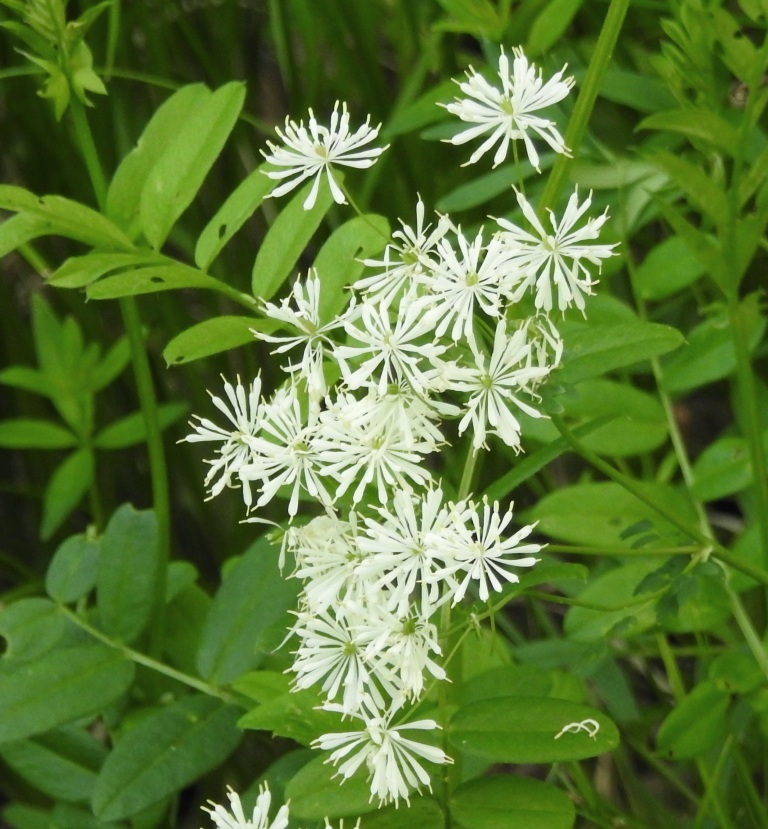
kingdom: Plantae
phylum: Tracheophyta
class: Magnoliopsida
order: Ranunculales
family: Ranunculaceae
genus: Thalictrum
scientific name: Thalictrum petaloideum
